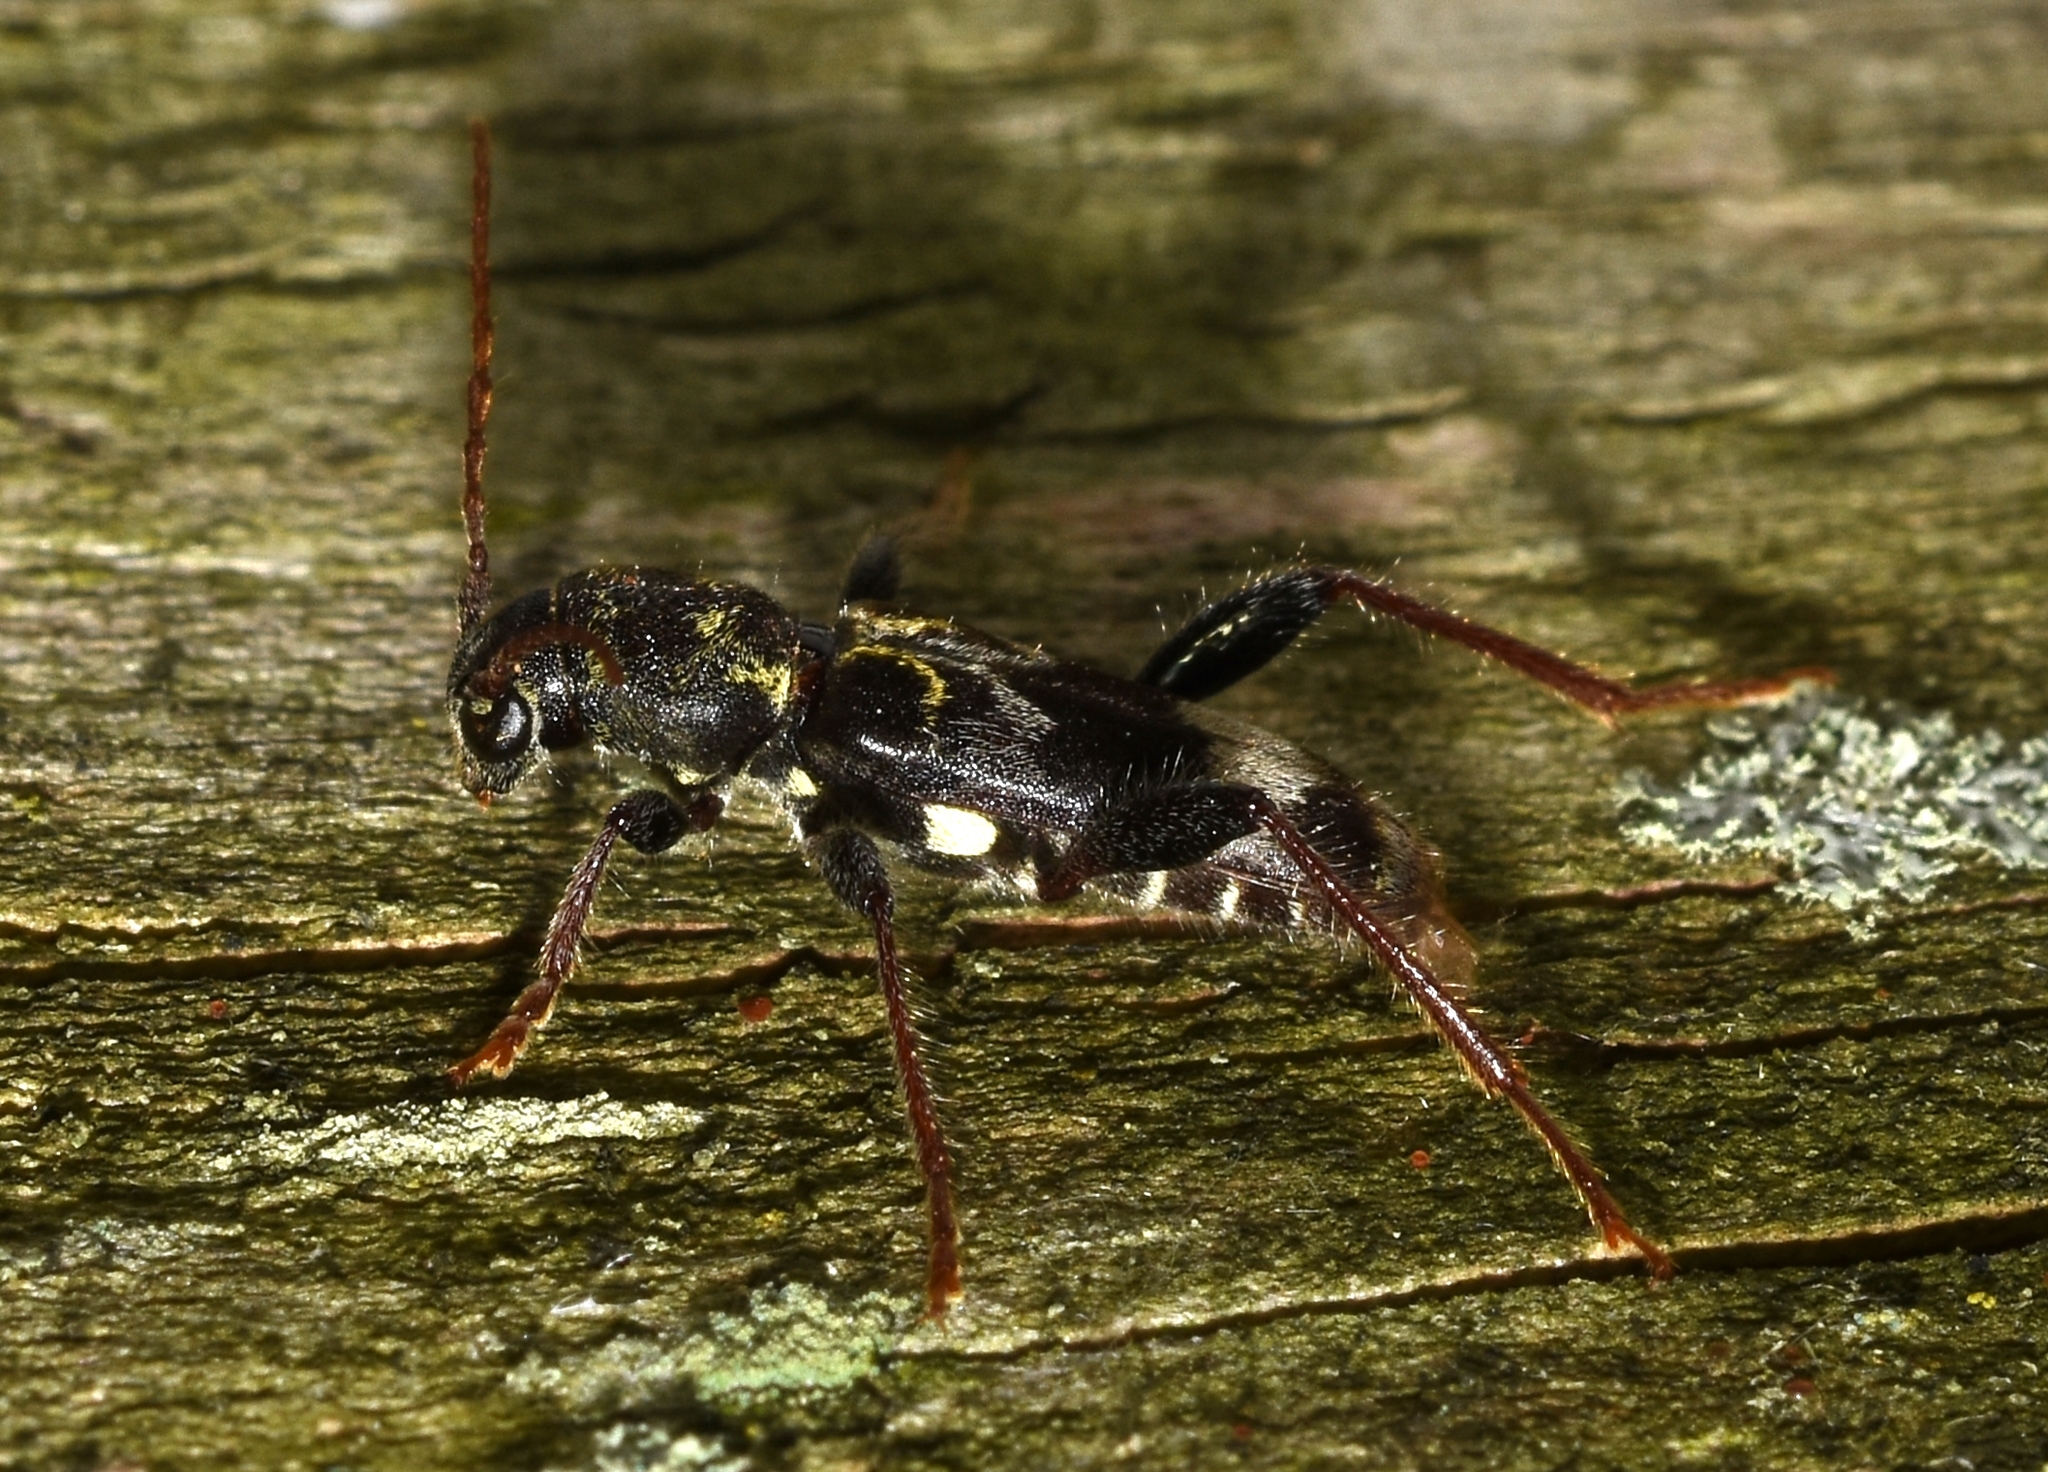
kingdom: Animalia
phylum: Arthropoda
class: Insecta
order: Coleoptera
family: Cerambycidae
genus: Xylotrechus
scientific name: Xylotrechus colonus
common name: Long-horned beetle
